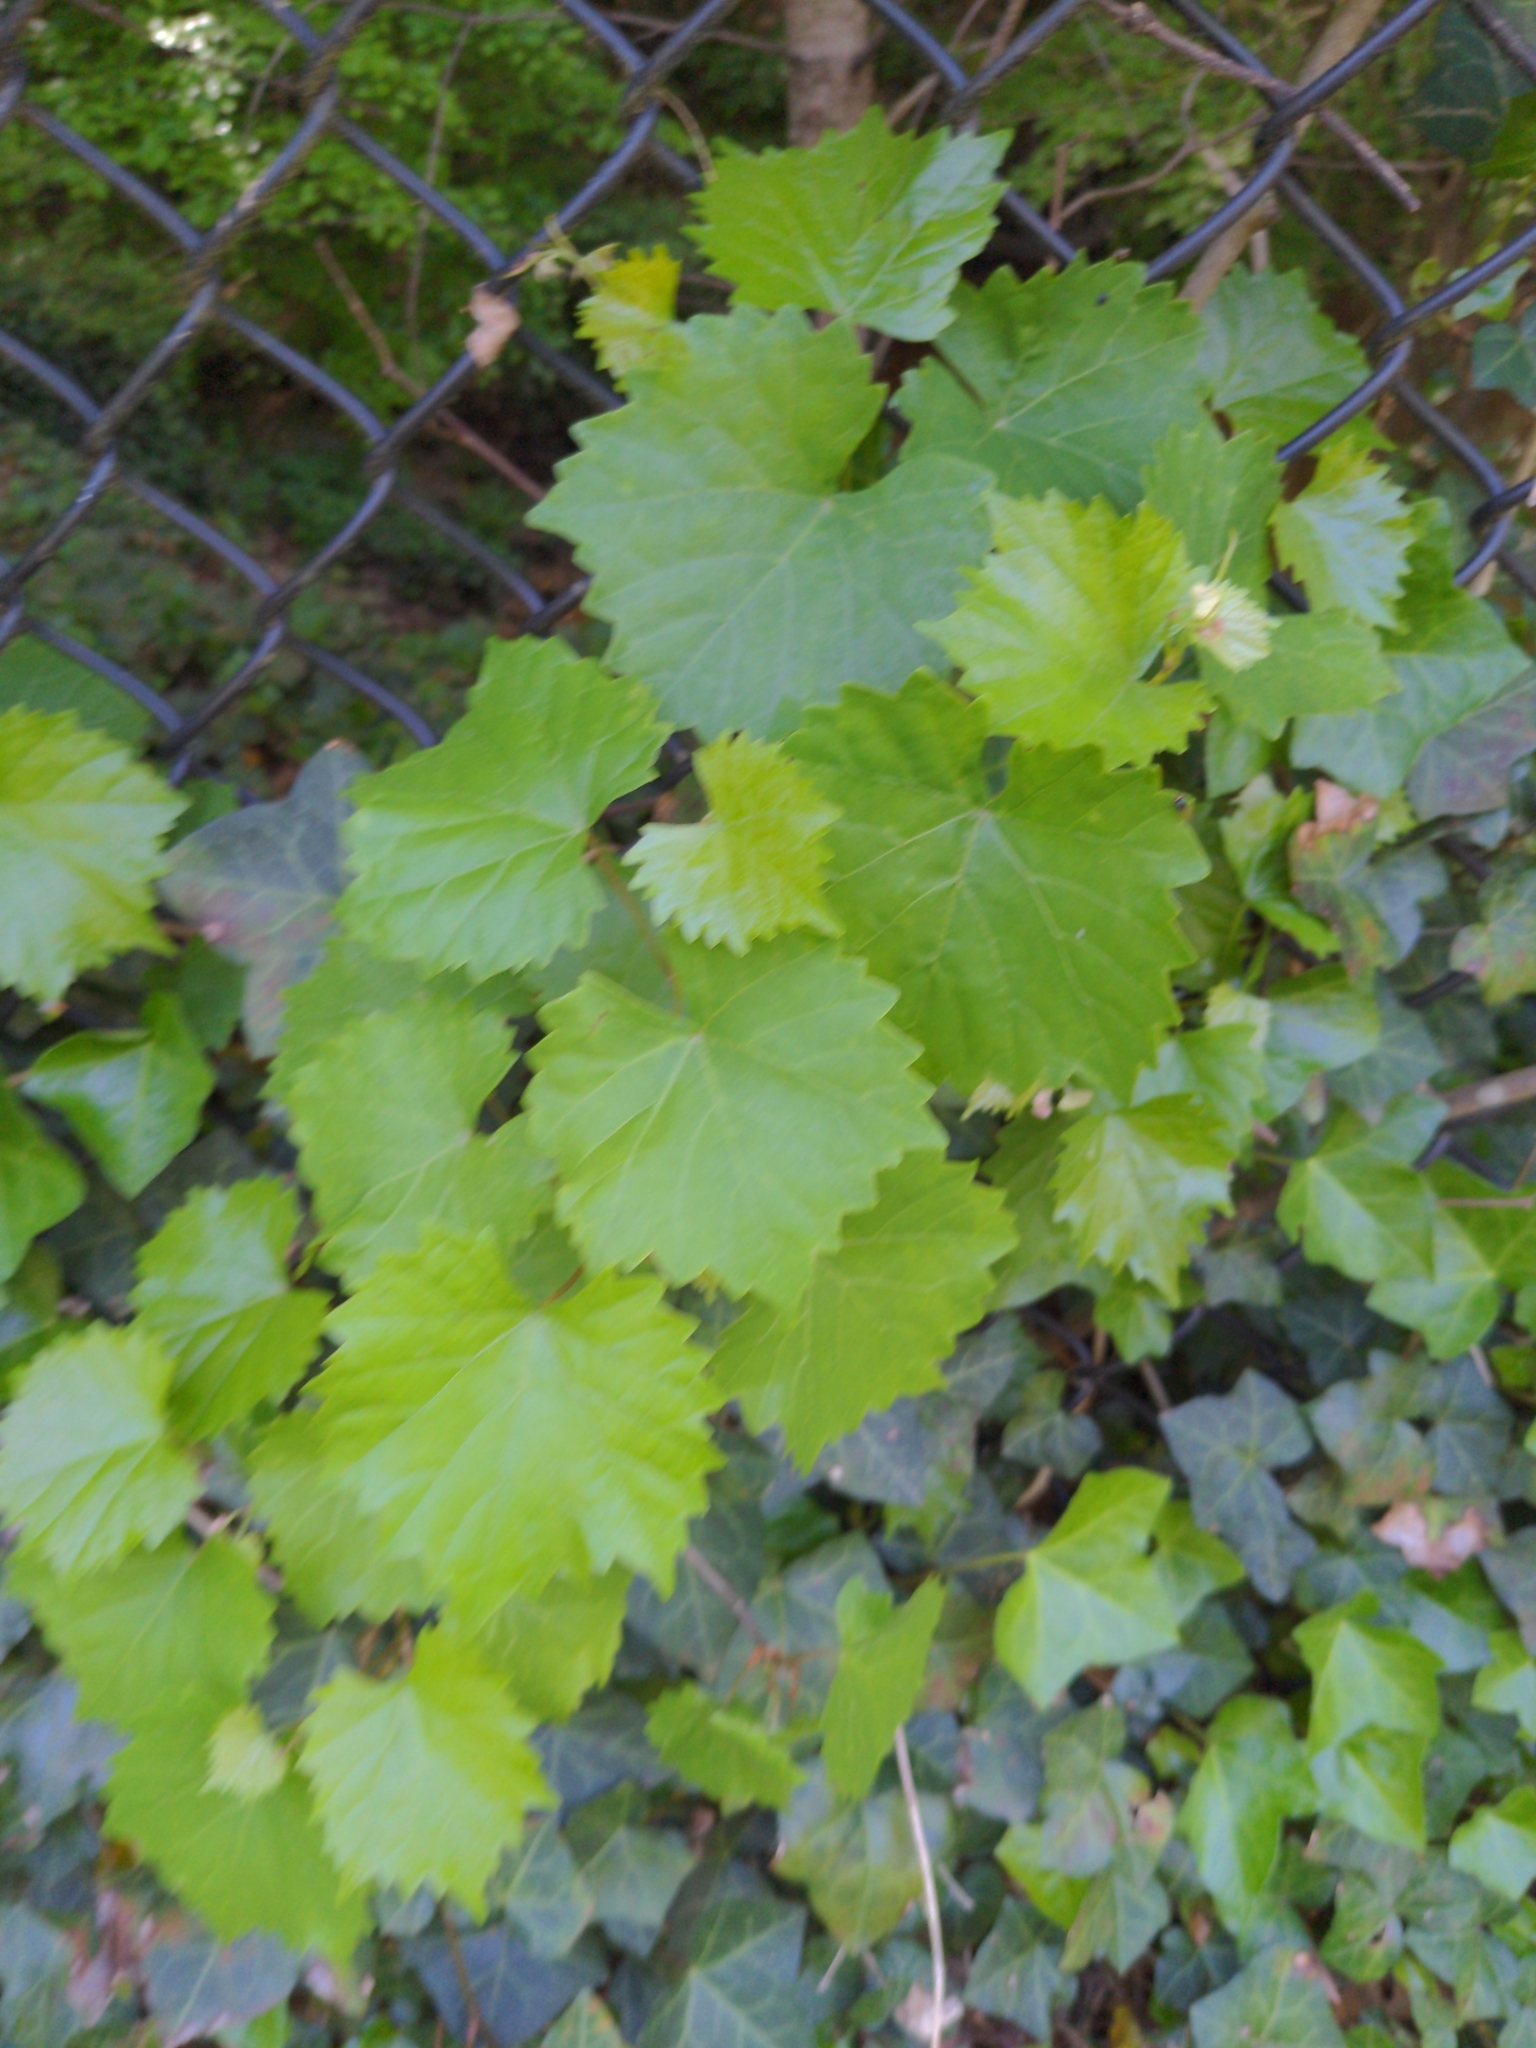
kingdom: Plantae
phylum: Tracheophyta
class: Magnoliopsida
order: Vitales
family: Vitaceae
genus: Vitis
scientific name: Vitis rotundifolia
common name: Muscadine grape
